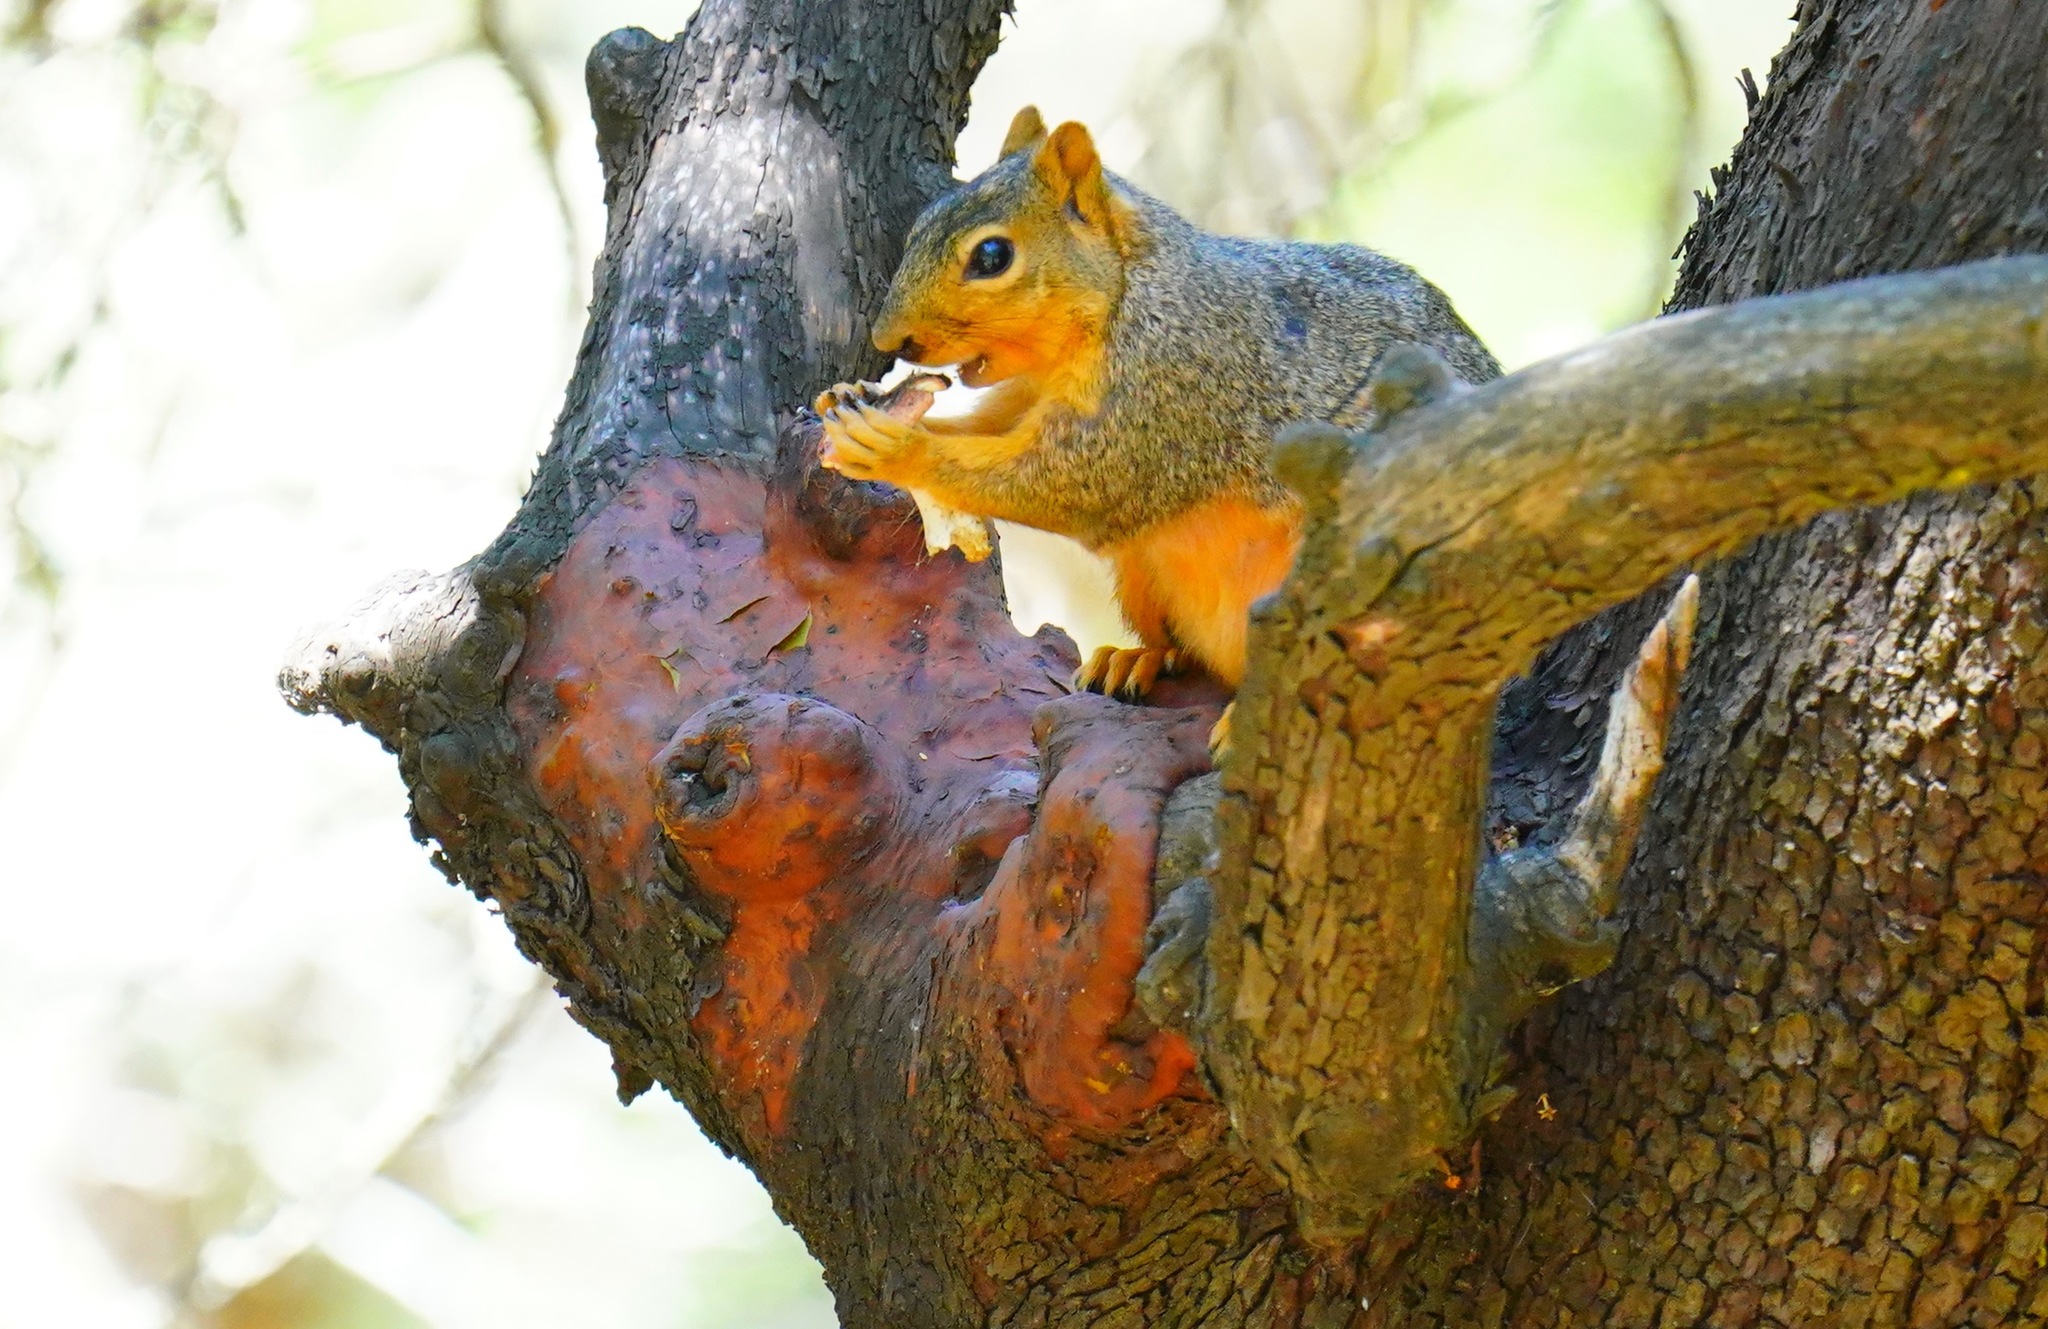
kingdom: Animalia
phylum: Chordata
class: Mammalia
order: Rodentia
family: Sciuridae
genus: Sciurus
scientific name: Sciurus niger
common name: Fox squirrel
